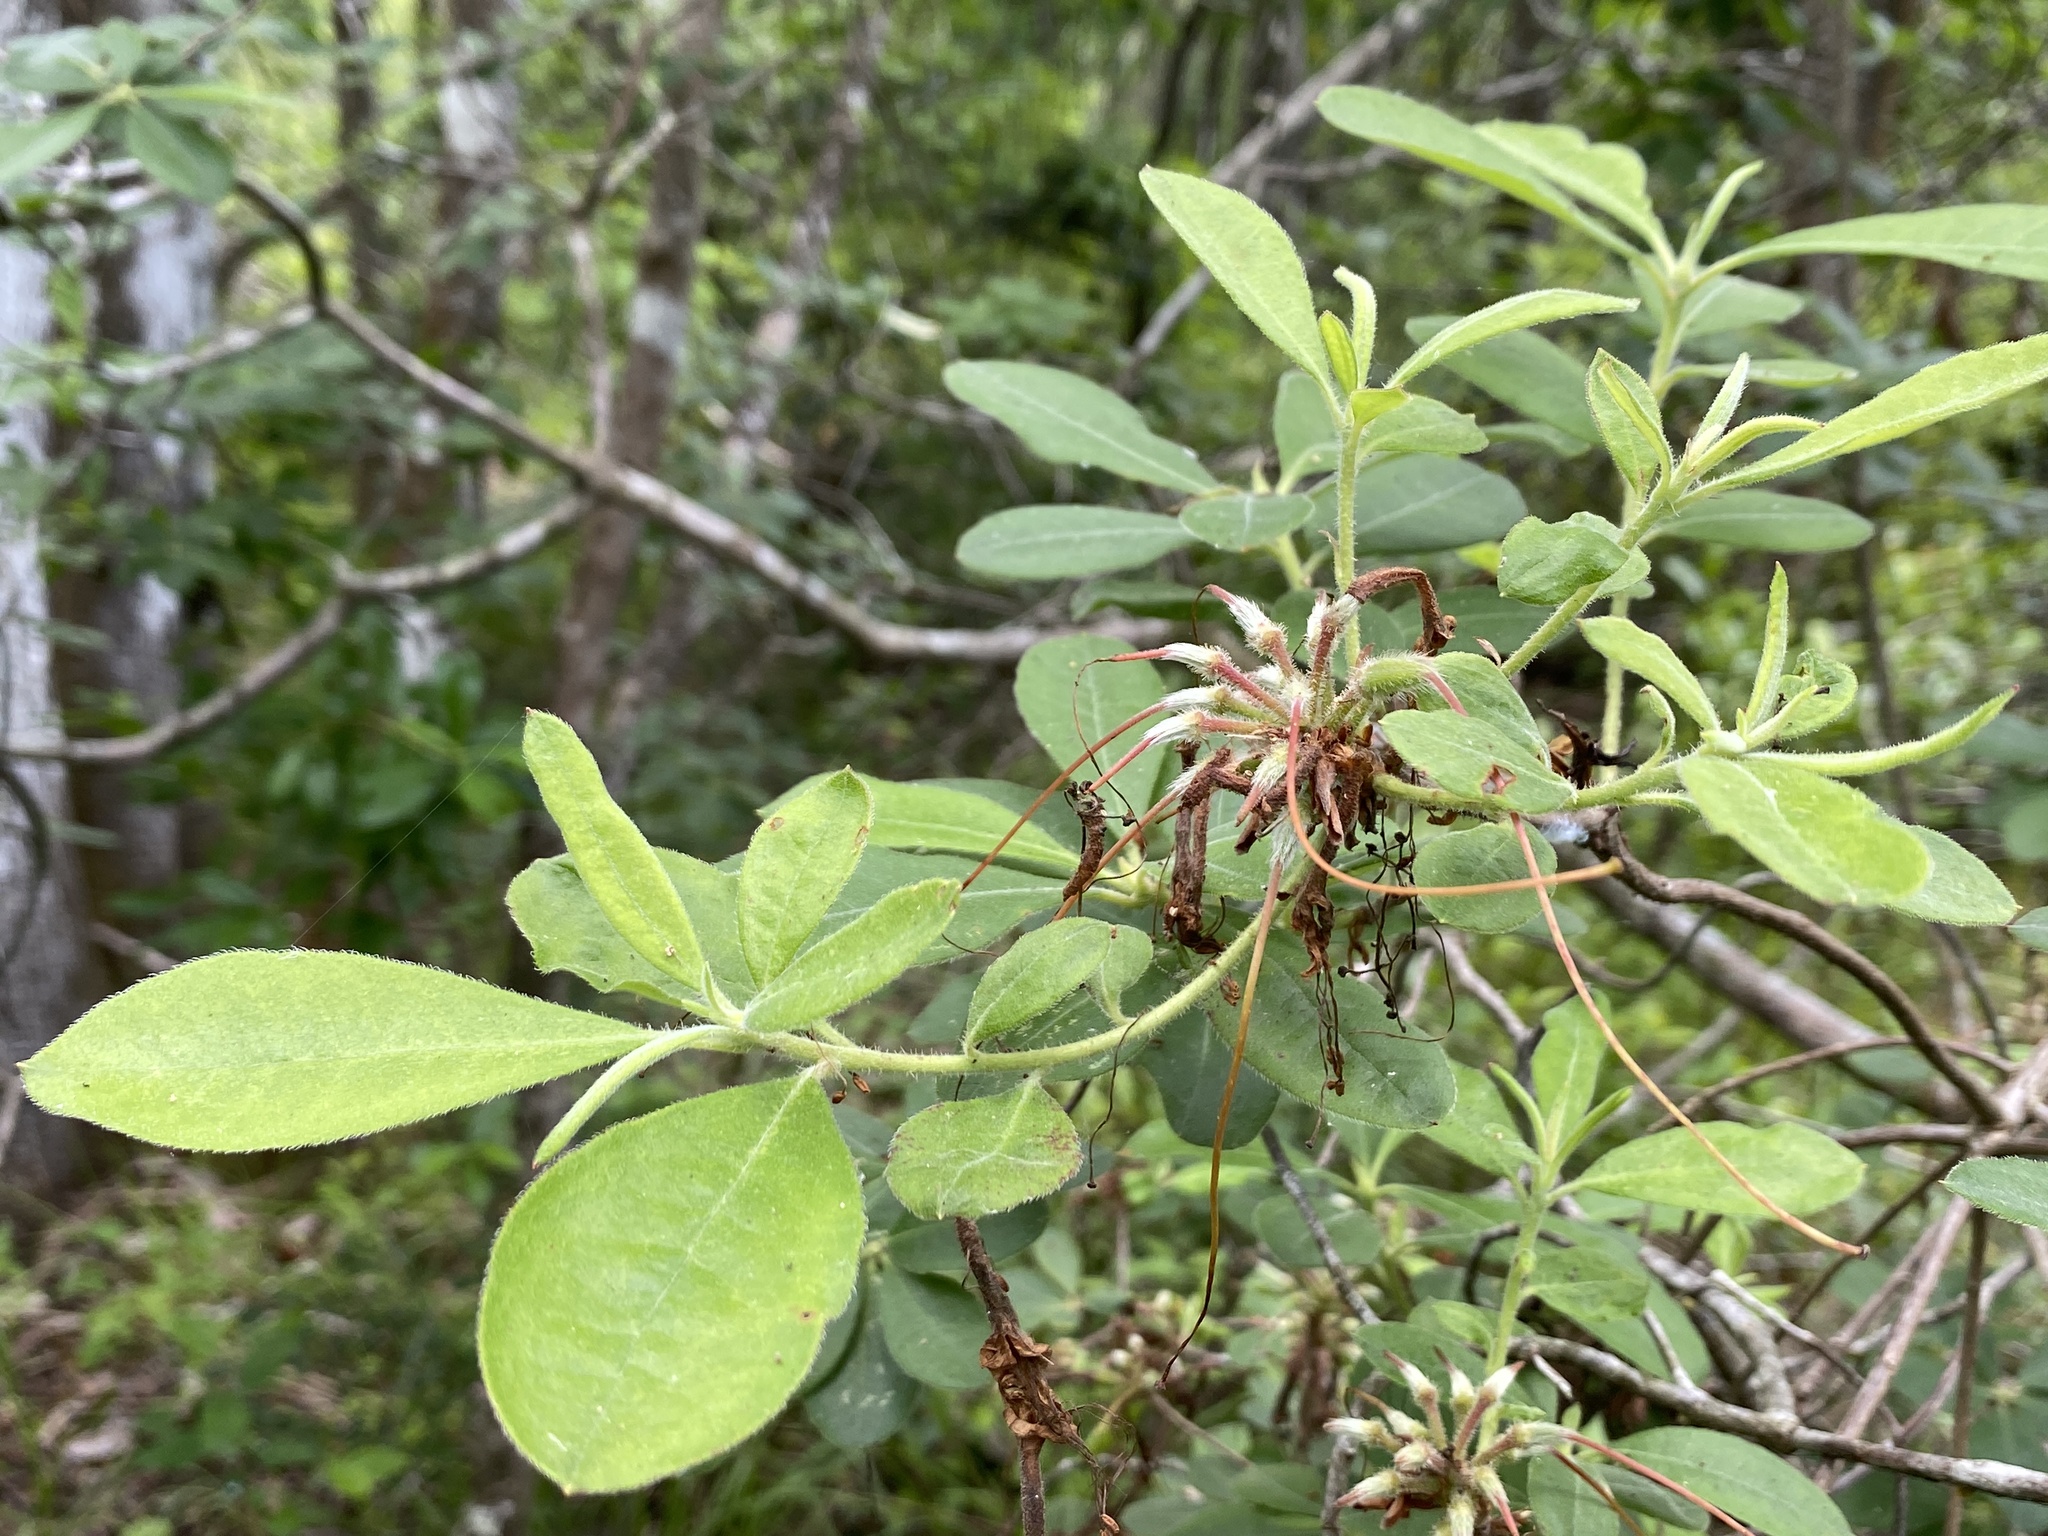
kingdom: Plantae
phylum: Tracheophyta
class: Magnoliopsida
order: Ericales
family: Ericaceae
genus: Rhododendron
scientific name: Rhododendron austrinum
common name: Florida azalea
